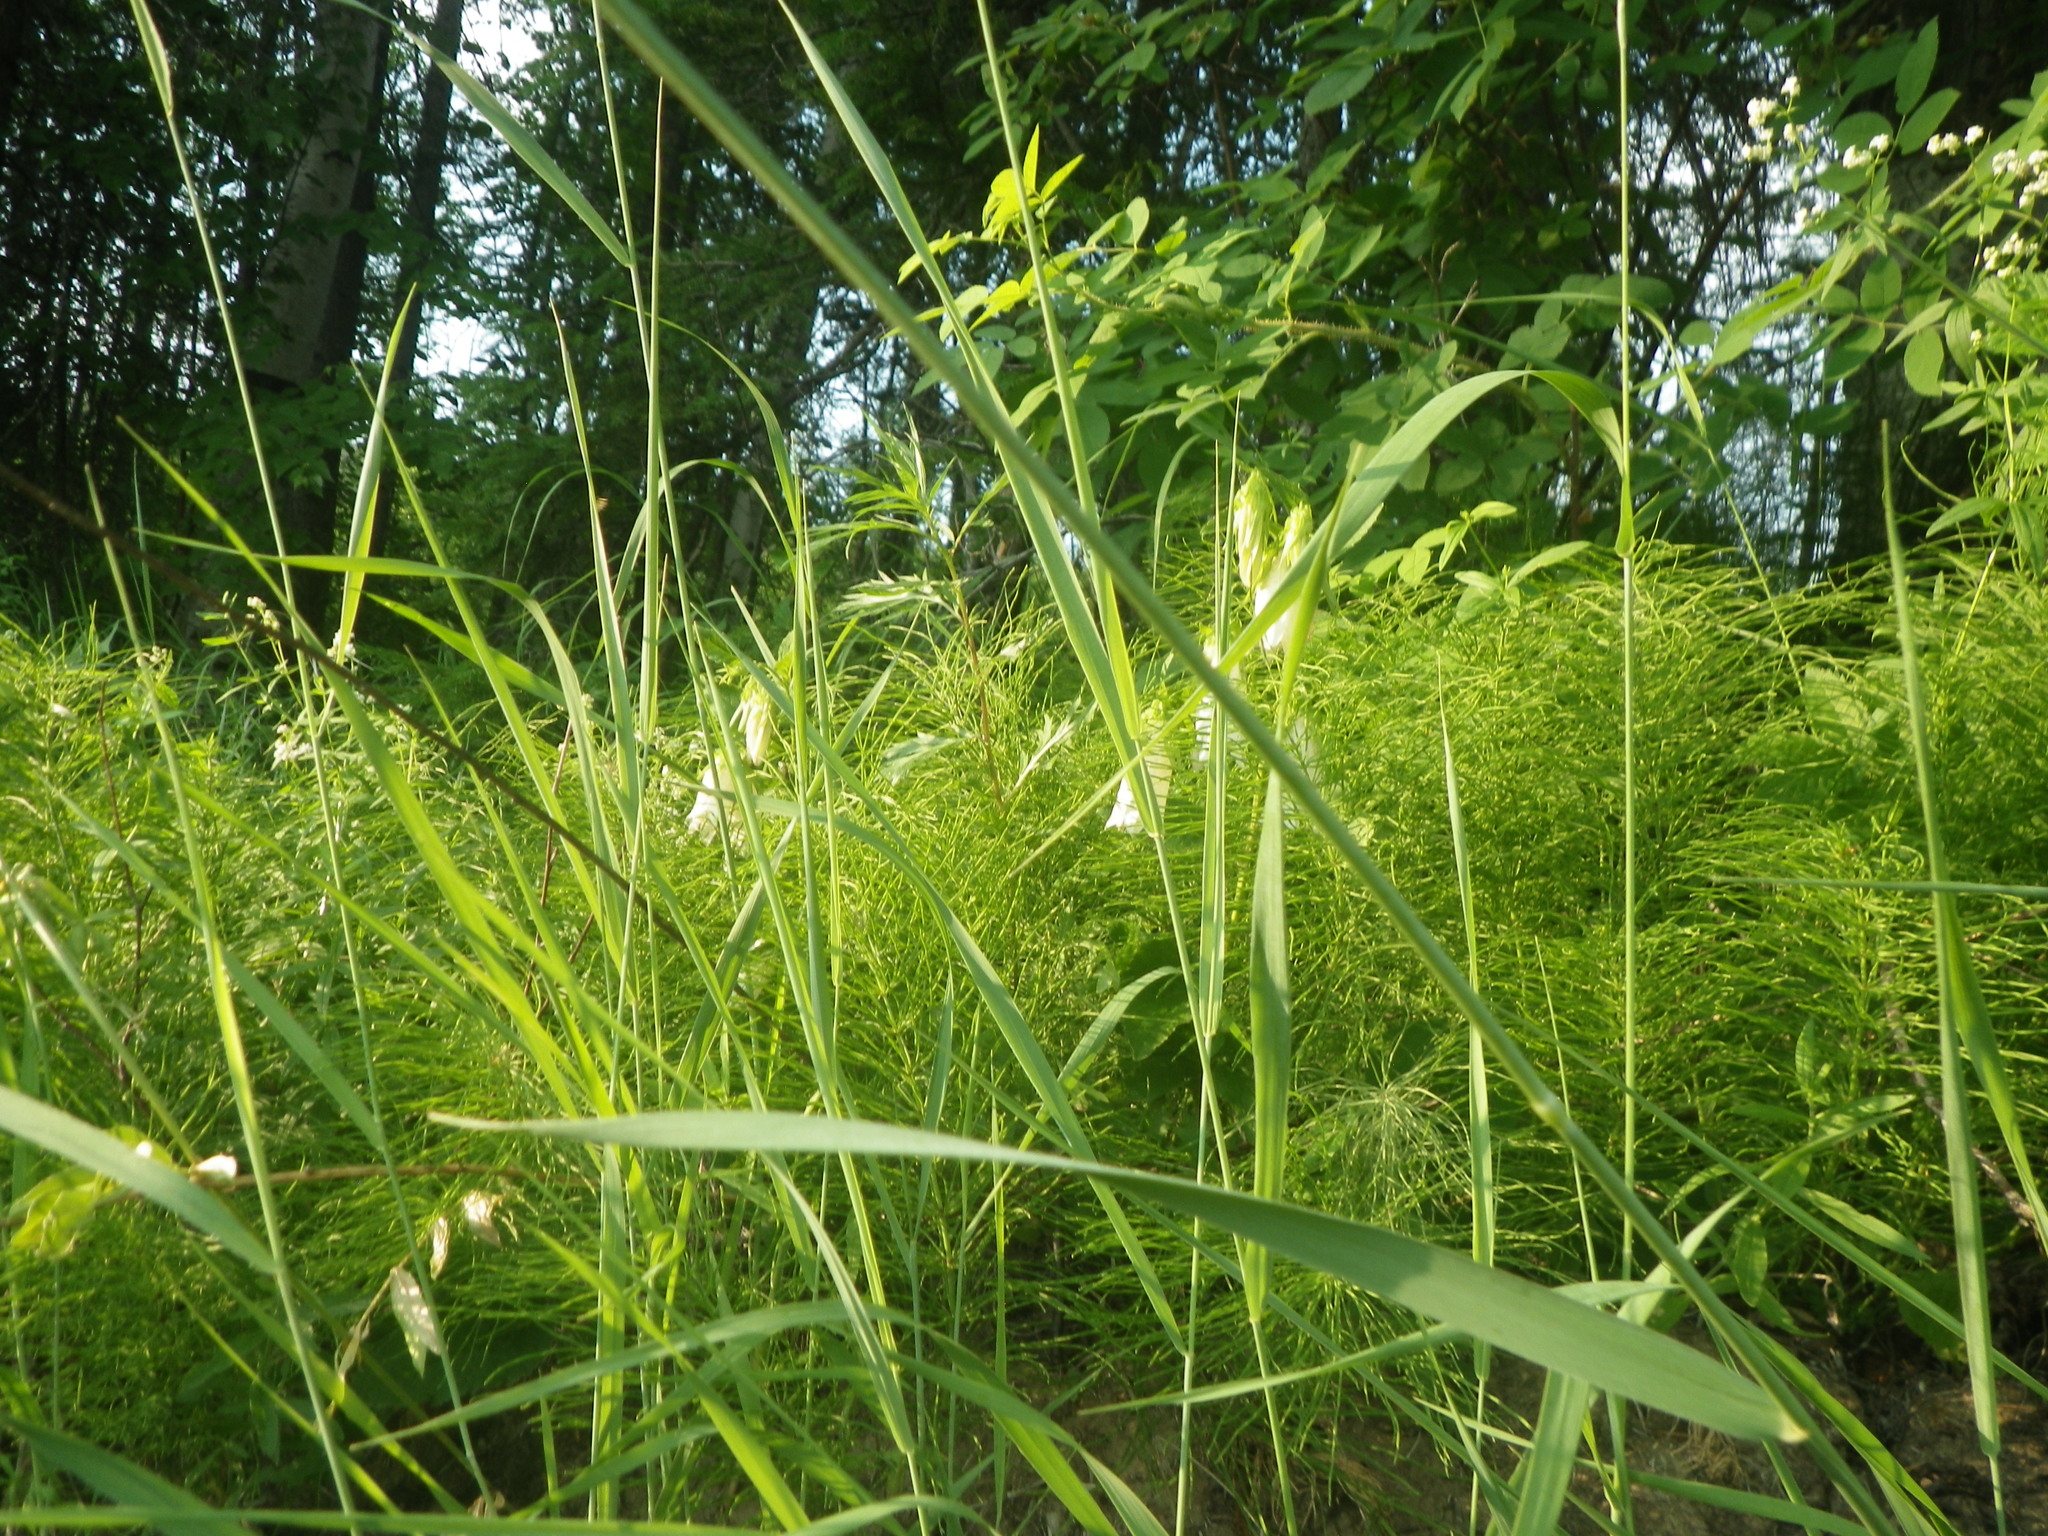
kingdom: Plantae
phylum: Tracheophyta
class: Magnoliopsida
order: Asterales
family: Campanulaceae
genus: Campanula
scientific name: Campanula punctata
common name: Spotted bellflower
